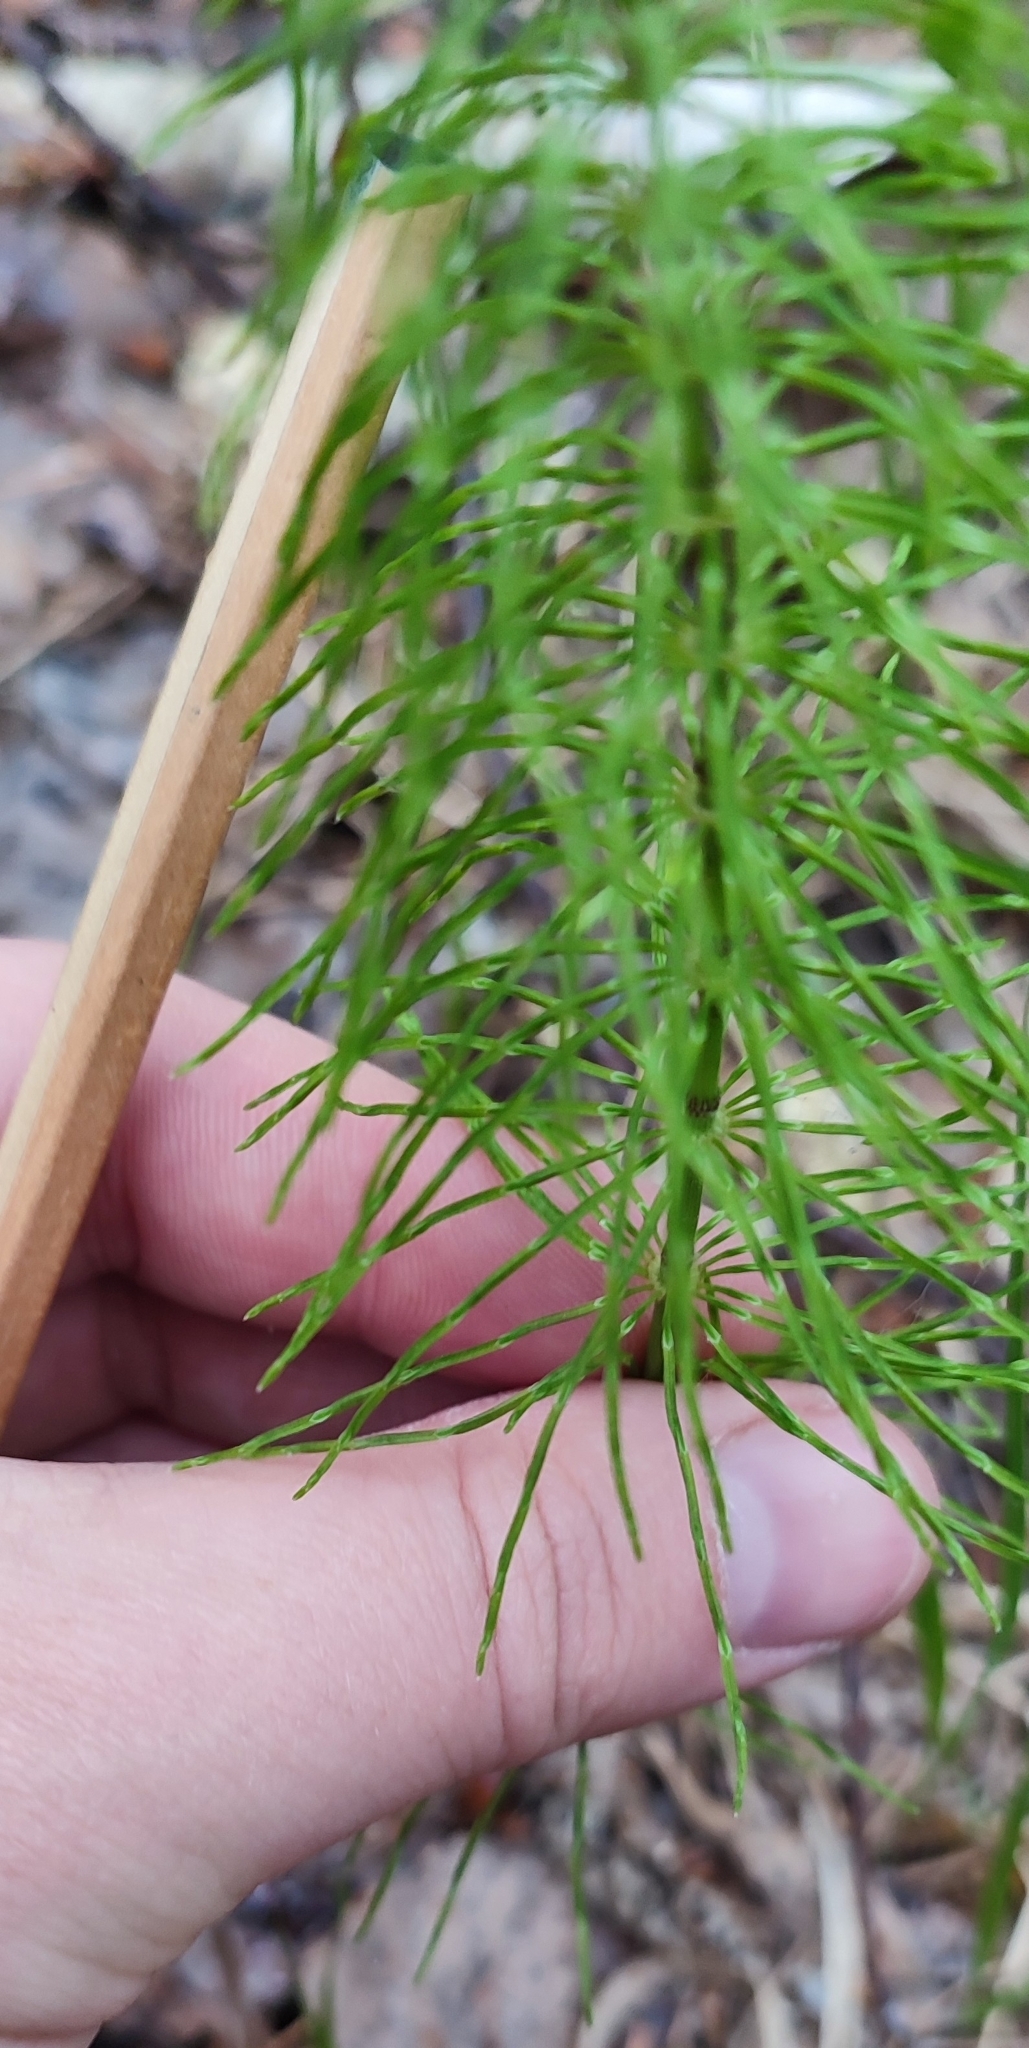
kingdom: Plantae
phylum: Tracheophyta
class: Polypodiopsida
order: Equisetales
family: Equisetaceae
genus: Equisetum
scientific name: Equisetum pratense
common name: Meadow horsetail
